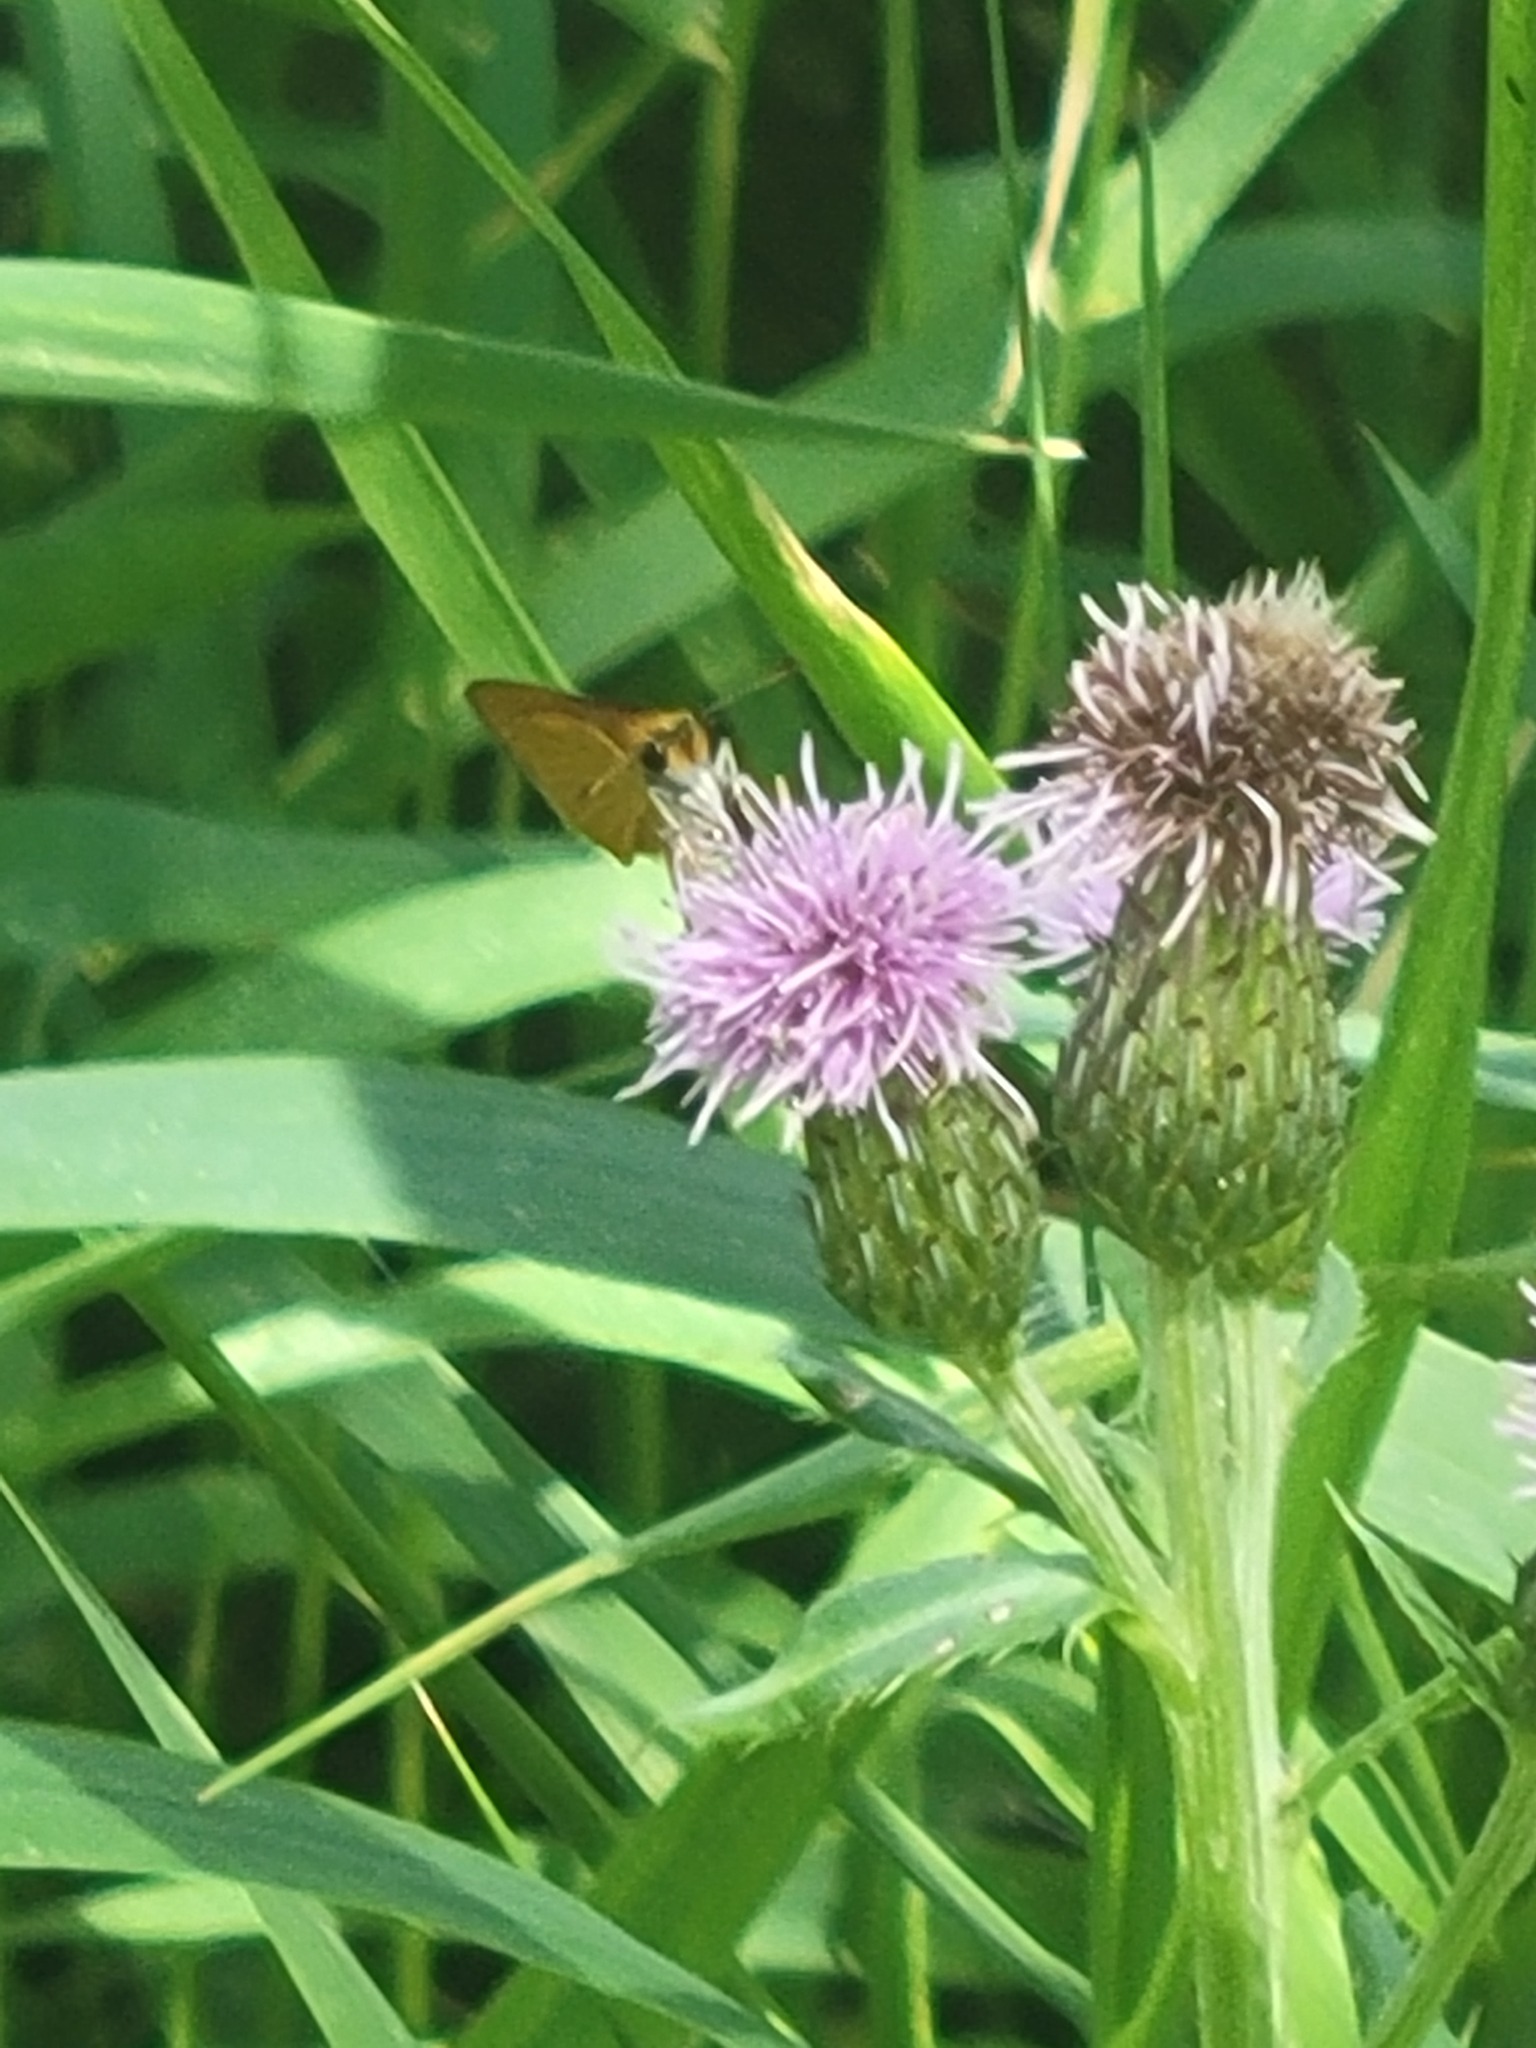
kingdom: Plantae
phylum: Tracheophyta
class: Magnoliopsida
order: Asterales
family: Asteraceae
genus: Cirsium
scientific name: Cirsium arvense
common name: Creeping thistle
